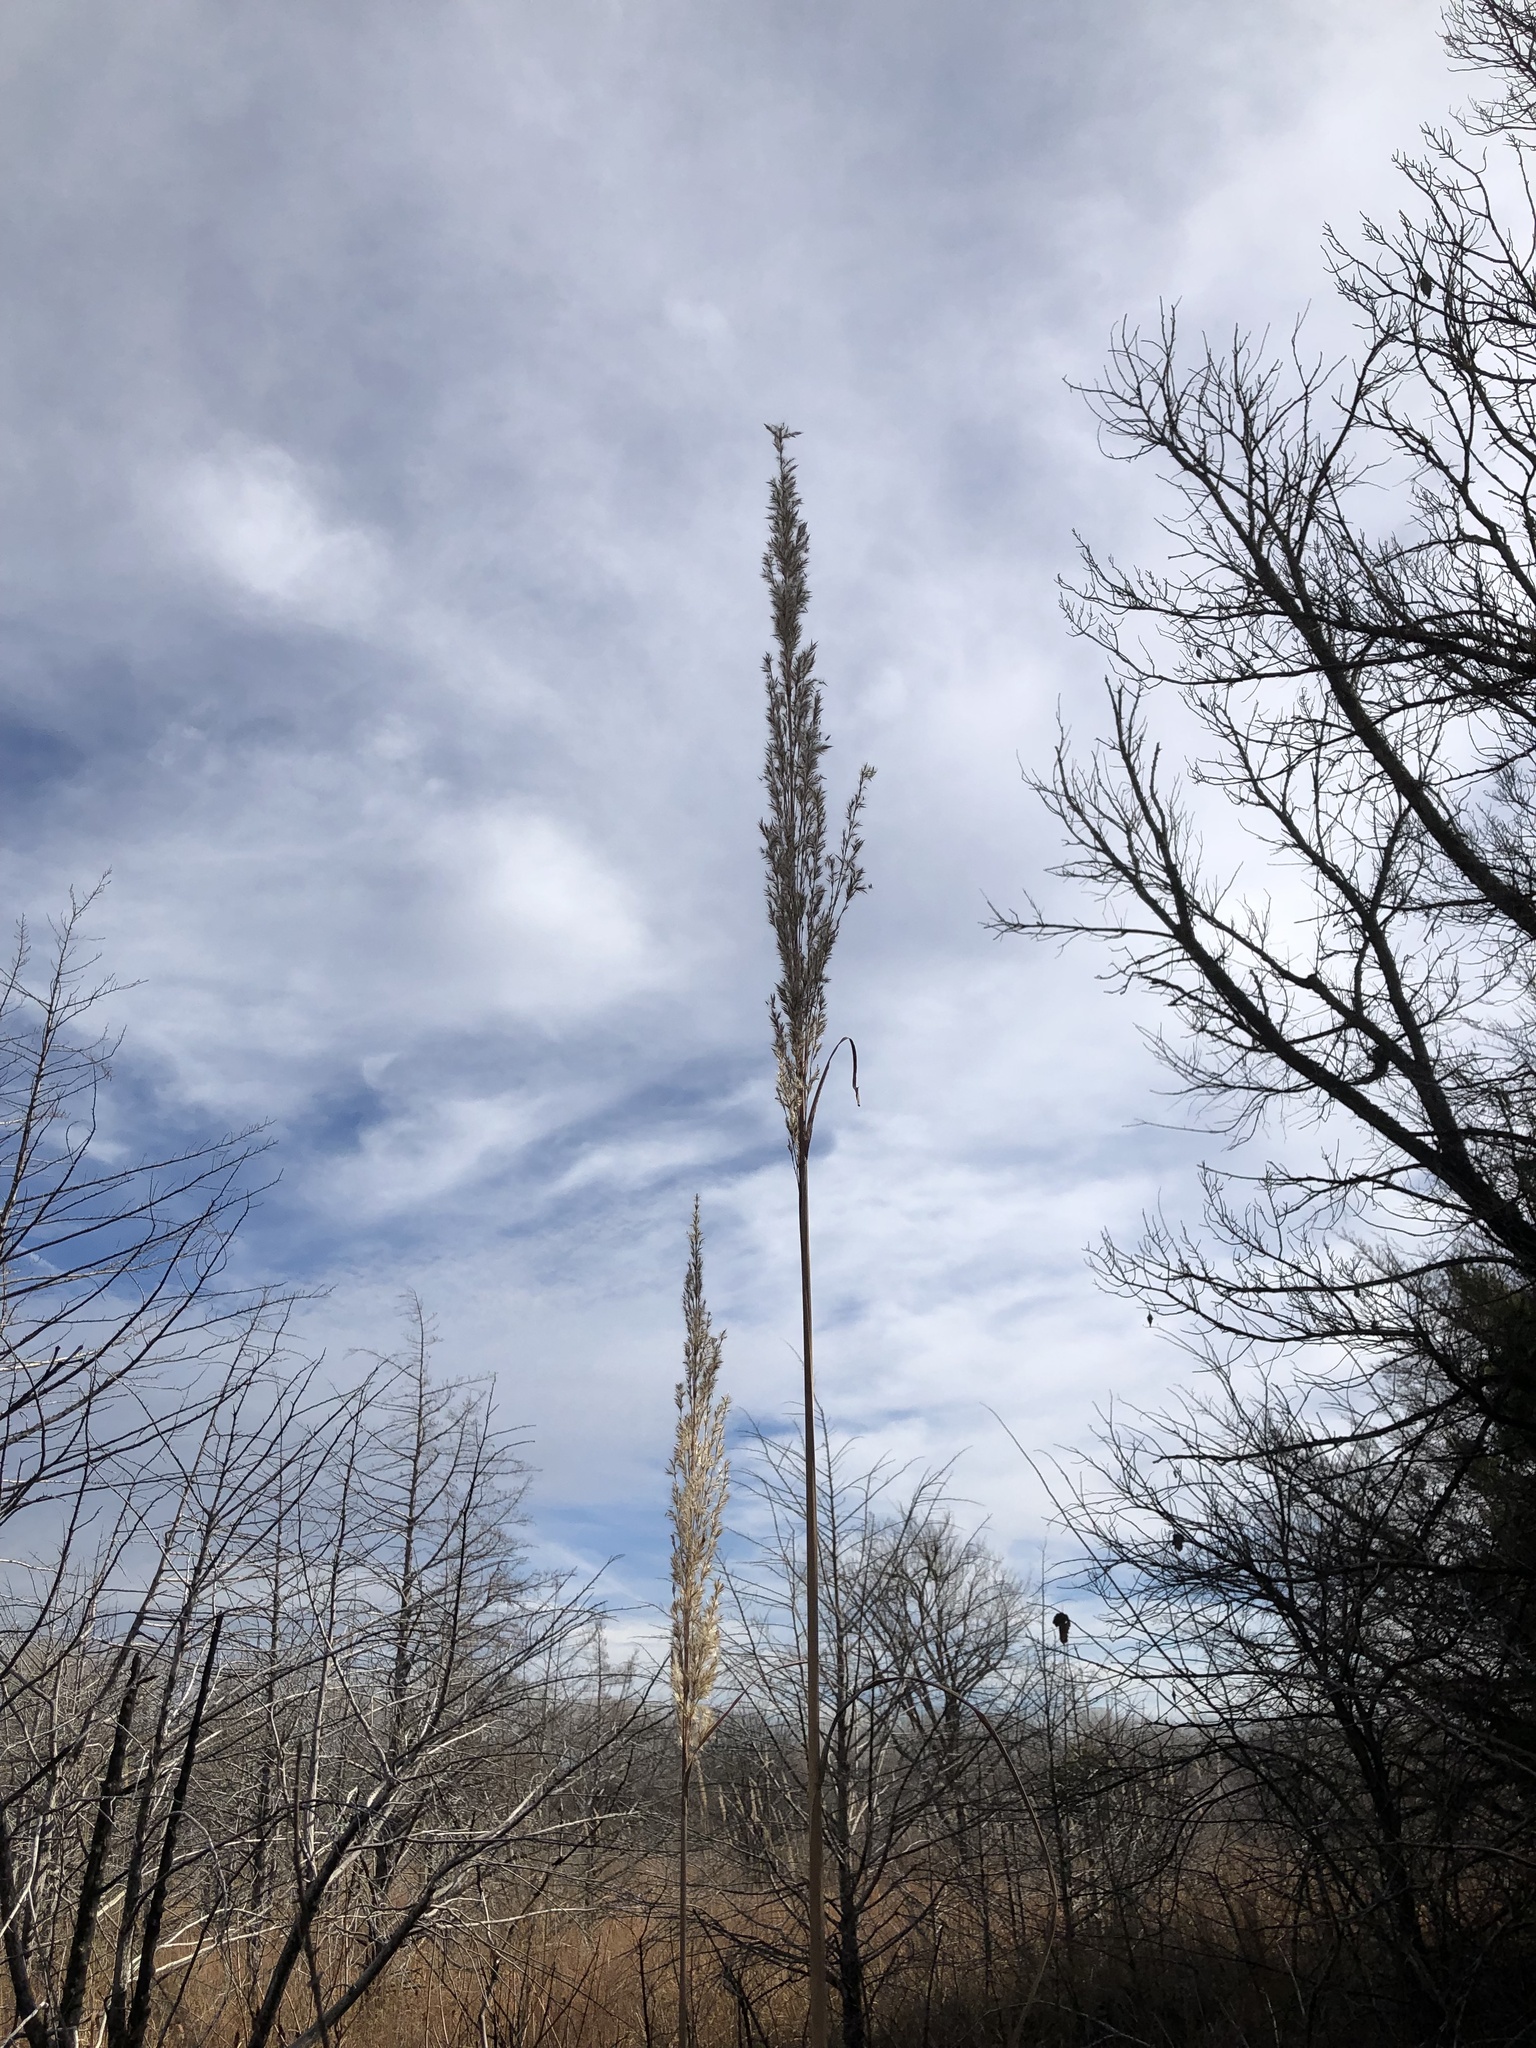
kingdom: Plantae
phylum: Tracheophyta
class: Liliopsida
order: Poales
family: Poaceae
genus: Tripidium
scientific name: Tripidium ravennae
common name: Ravenna grass
